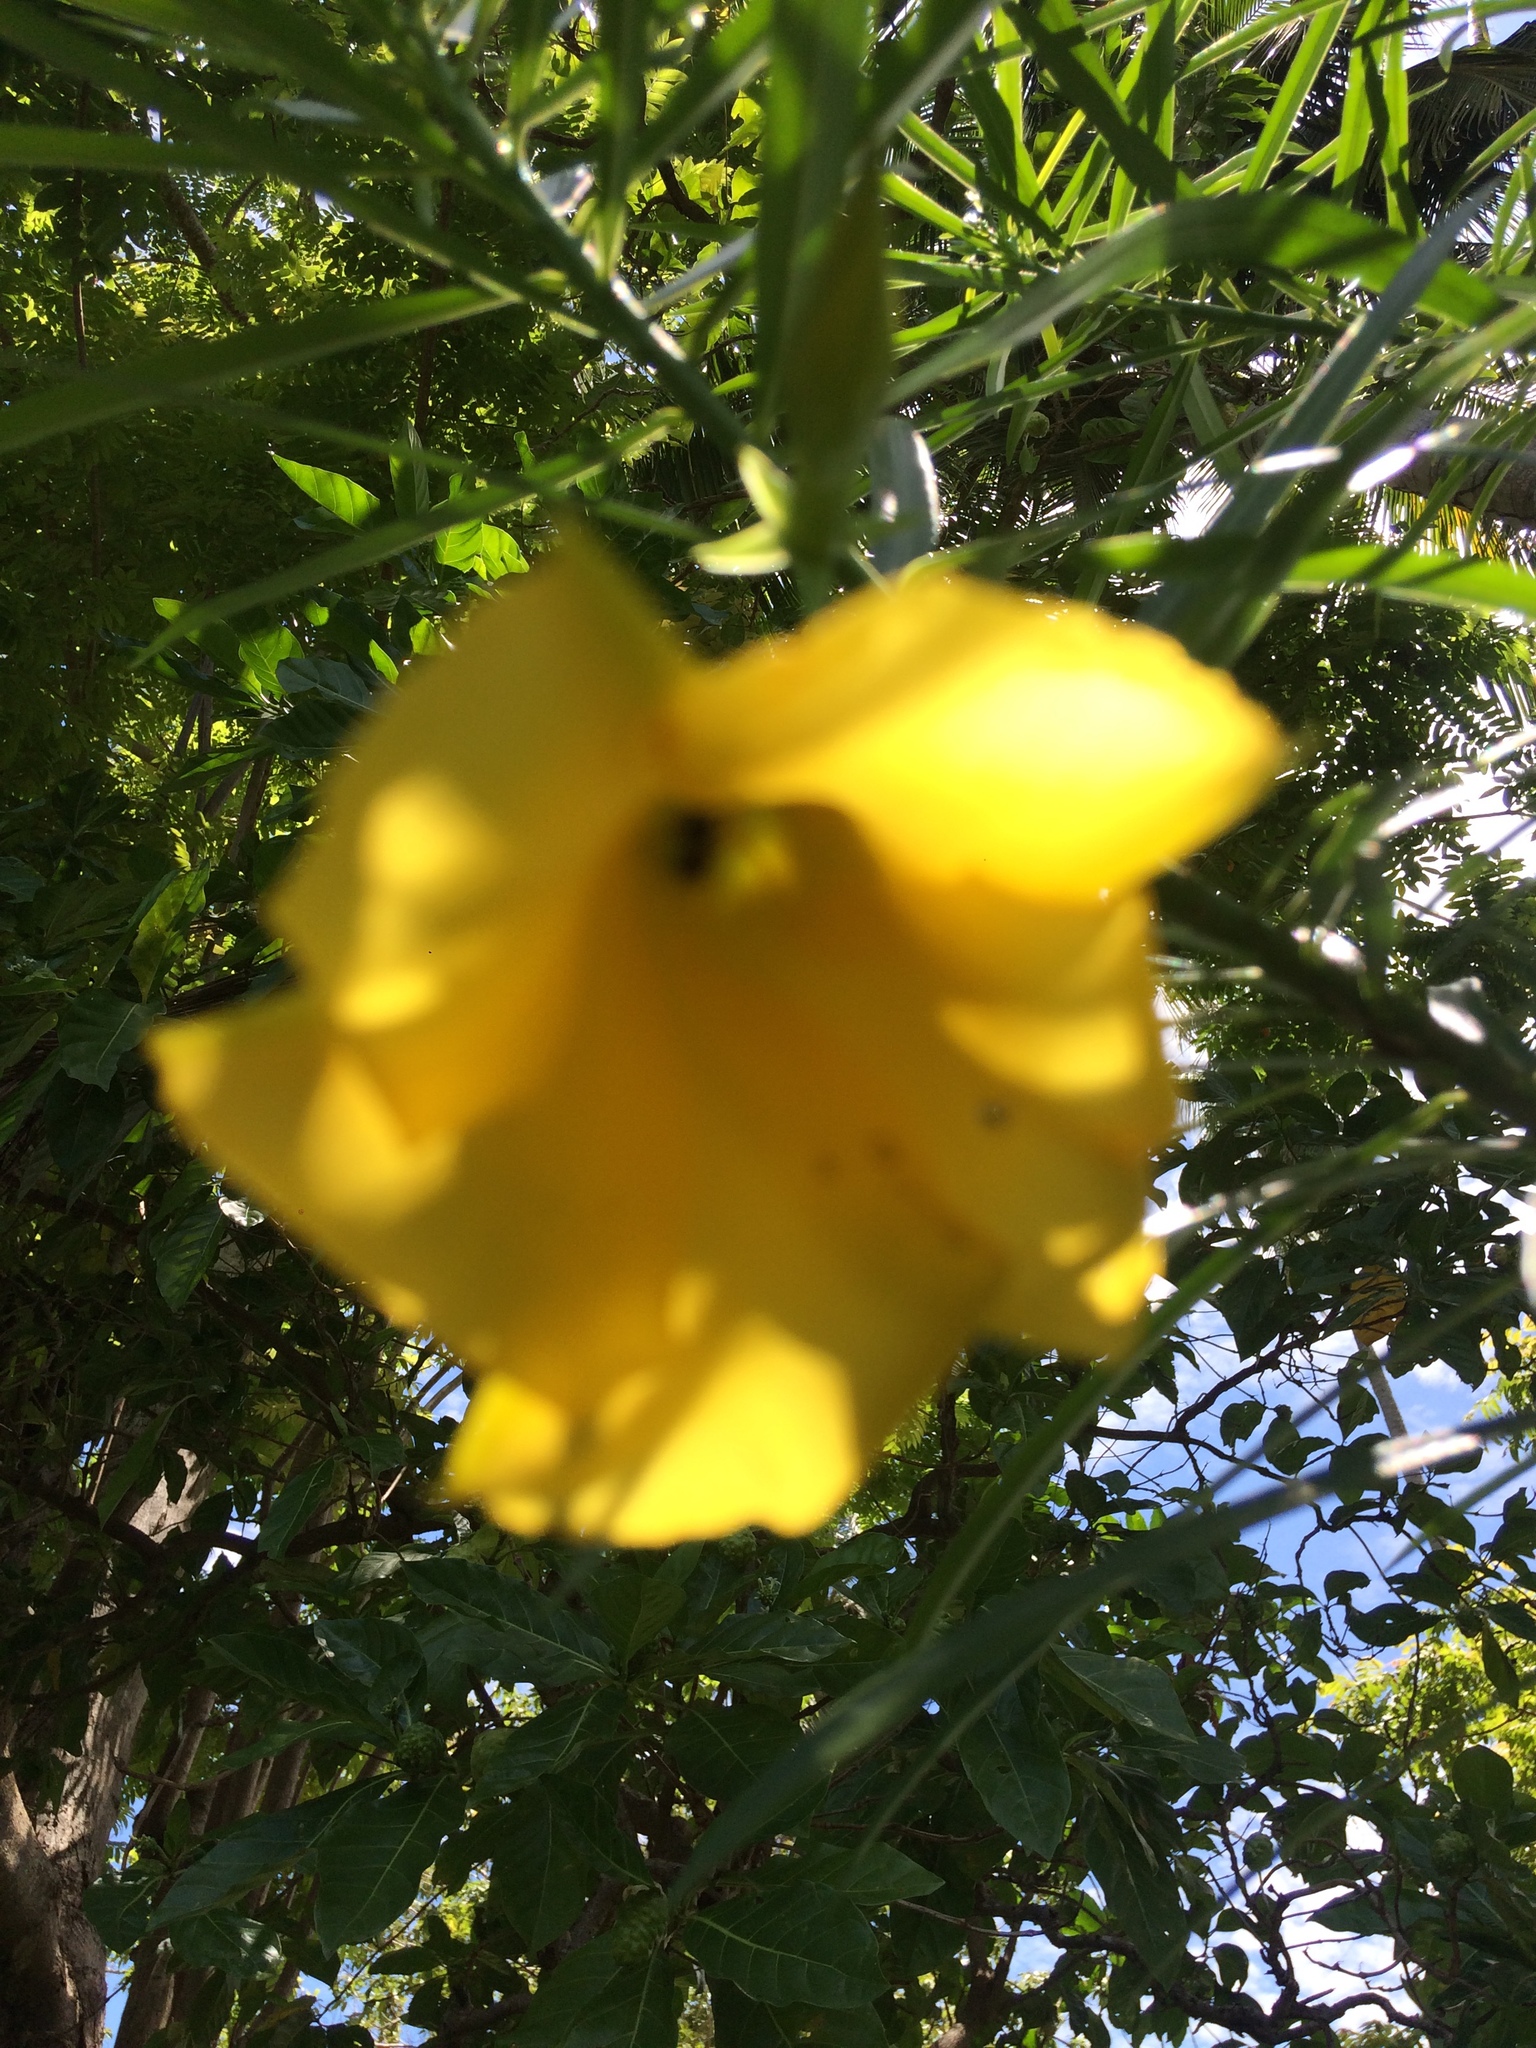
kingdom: Plantae
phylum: Tracheophyta
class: Magnoliopsida
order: Gentianales
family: Apocynaceae
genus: Cascabela
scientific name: Cascabela thevetia
